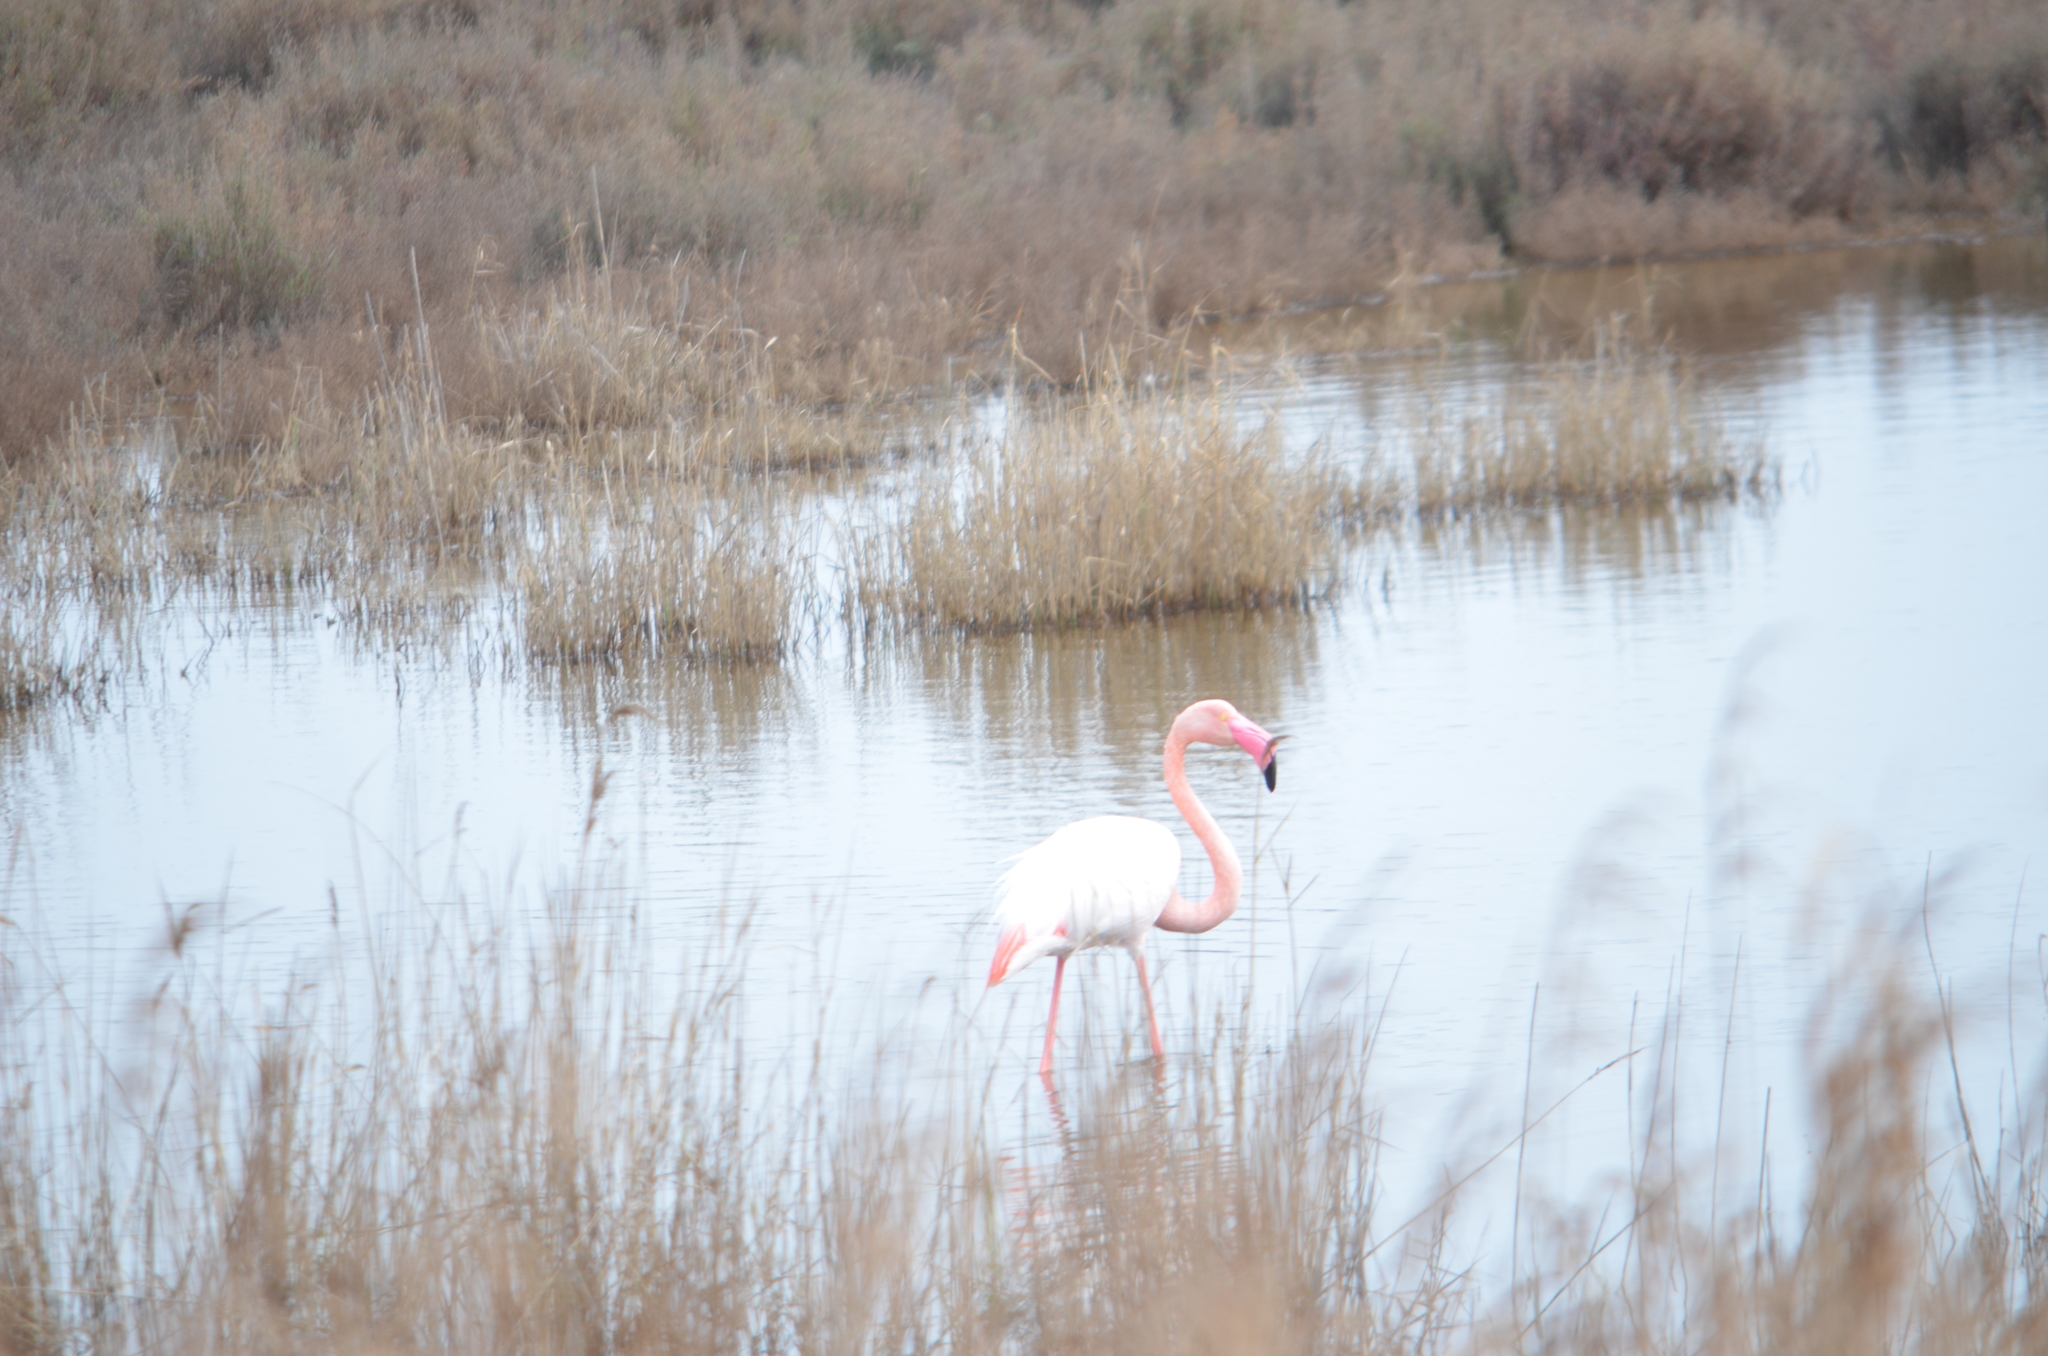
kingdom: Animalia
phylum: Chordata
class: Aves
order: Phoenicopteriformes
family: Phoenicopteridae
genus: Phoenicopterus
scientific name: Phoenicopterus roseus
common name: Greater flamingo
